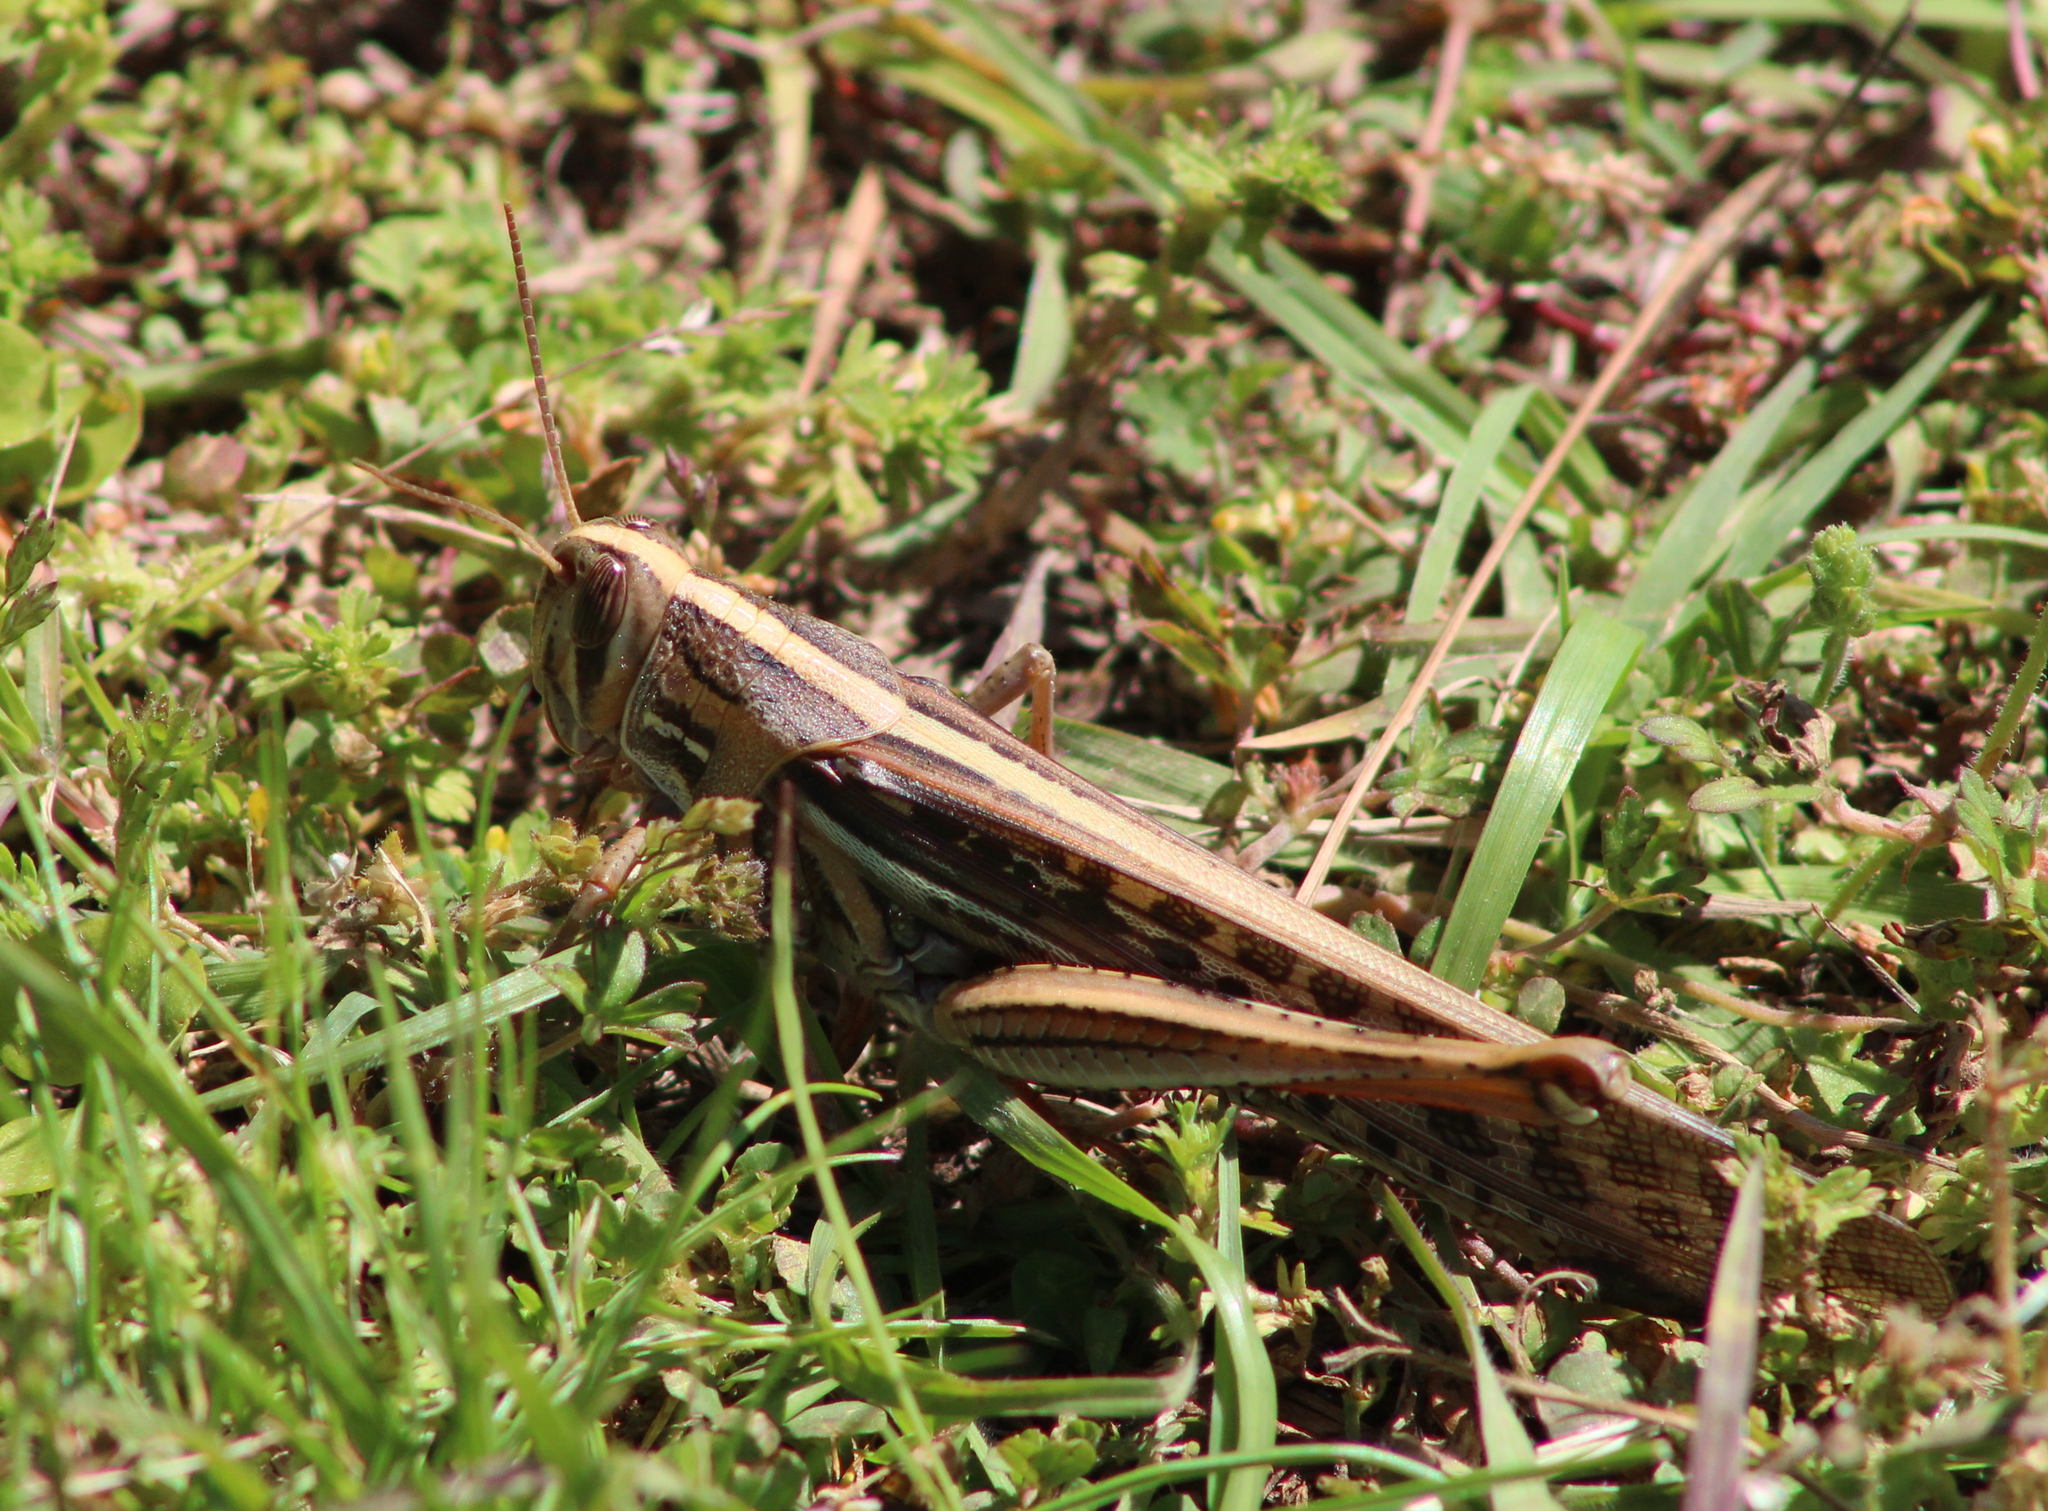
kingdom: Animalia
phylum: Arthropoda
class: Insecta
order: Orthoptera
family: Acrididae
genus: Schistocerca
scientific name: Schistocerca americana
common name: American bird locust
